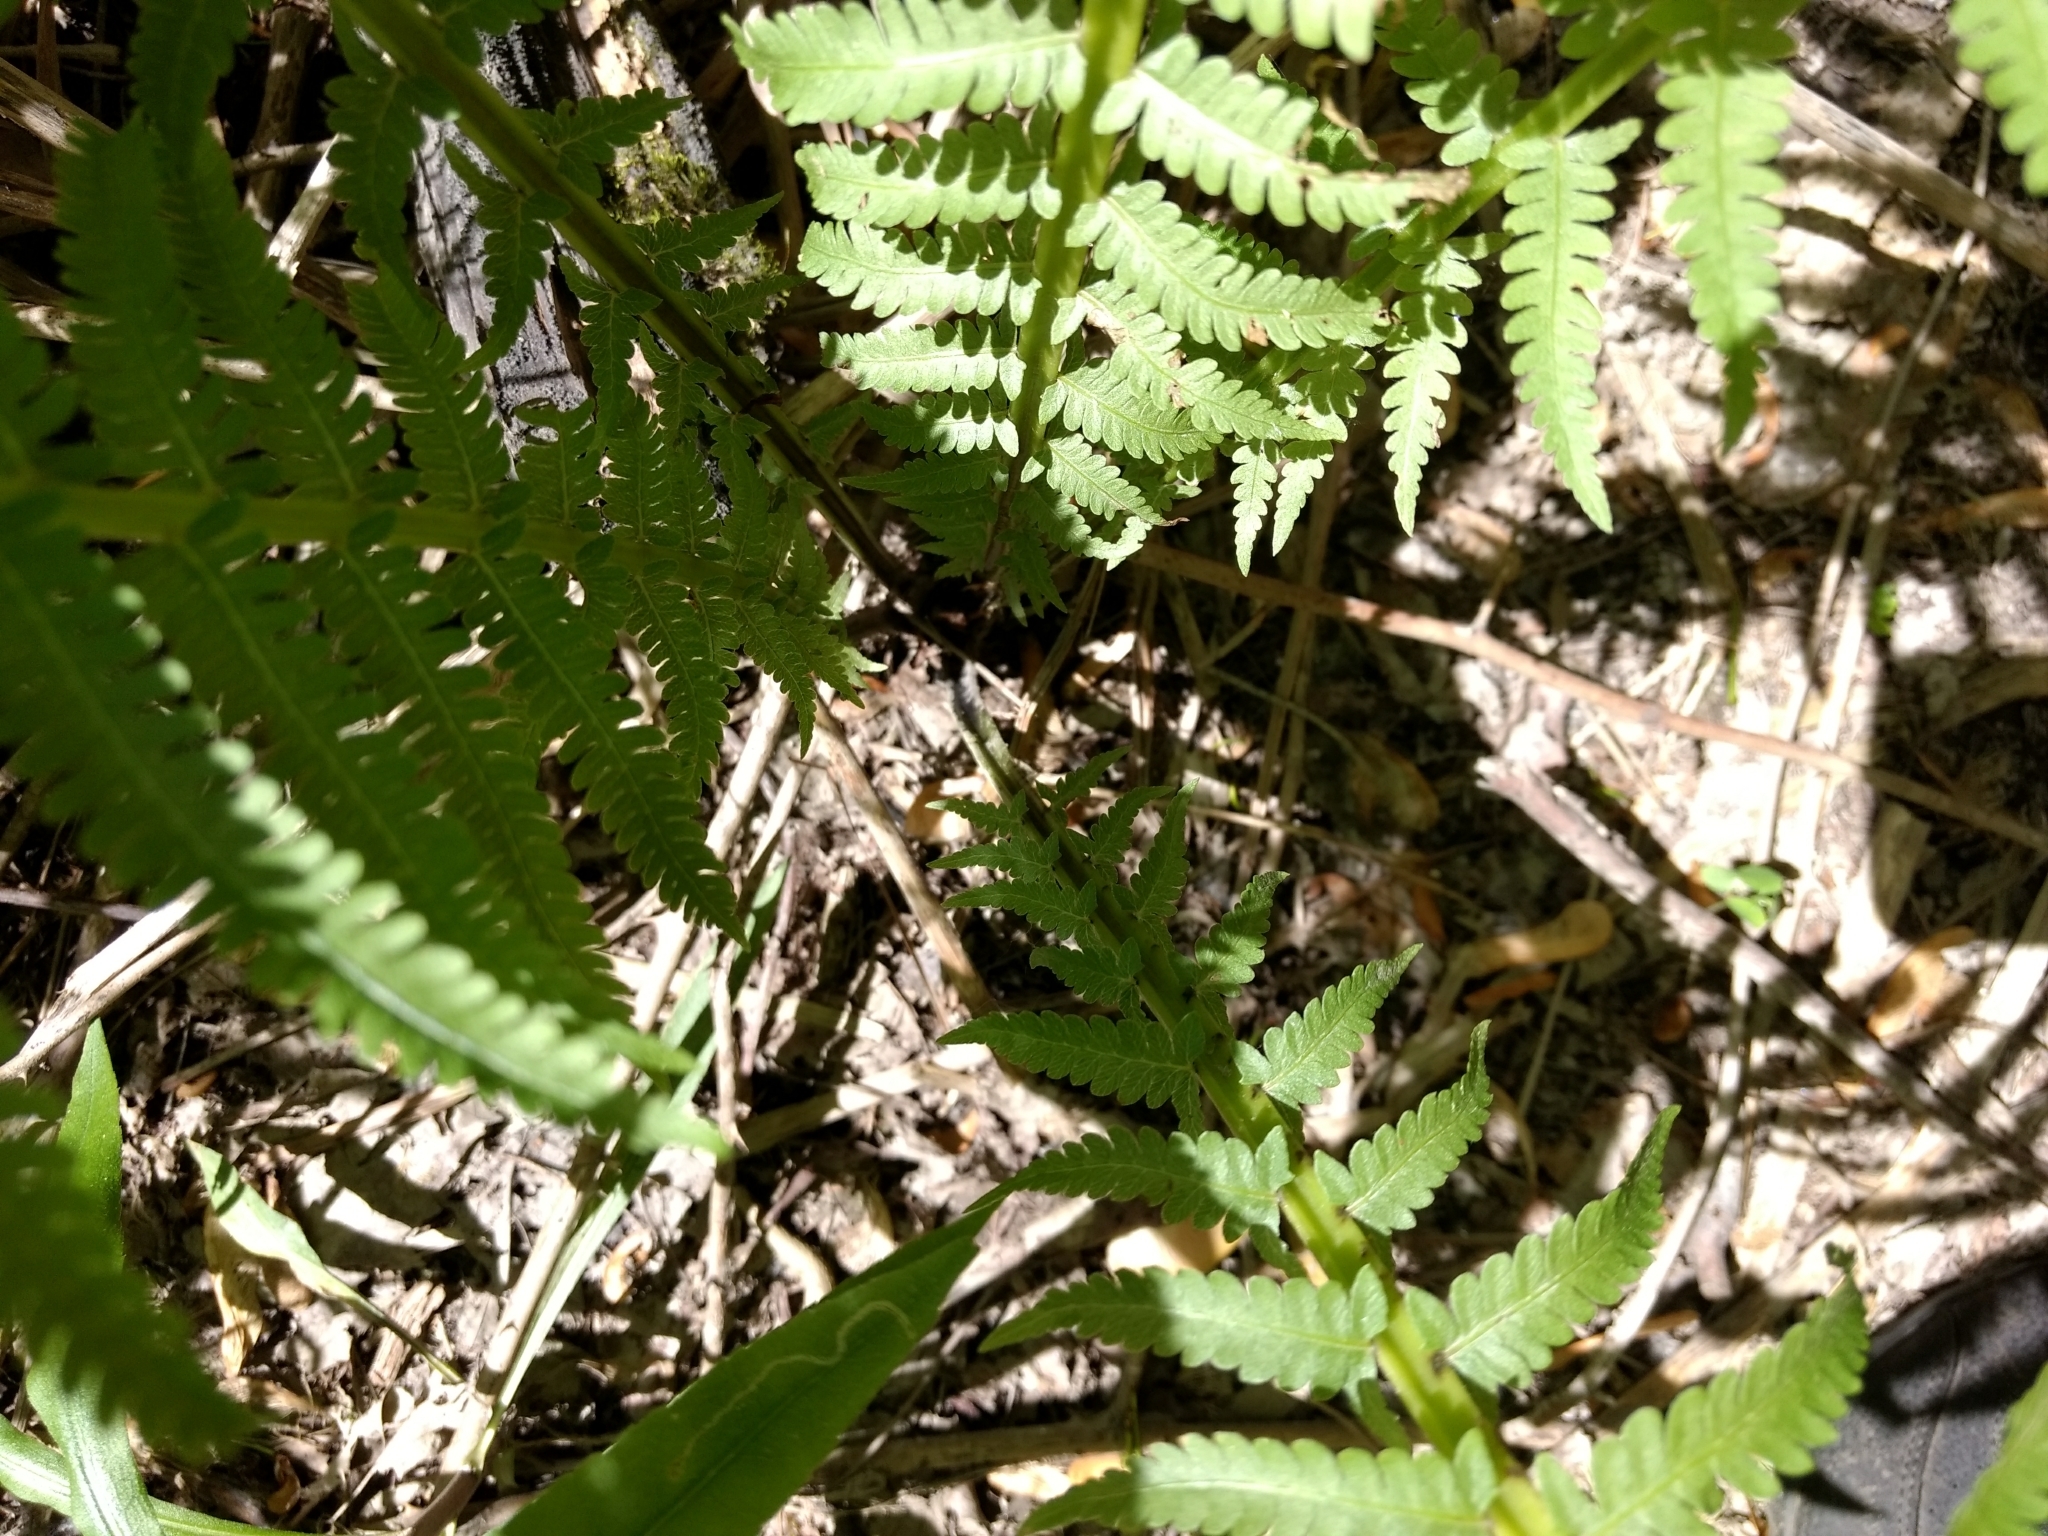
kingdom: Plantae
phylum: Tracheophyta
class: Polypodiopsida
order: Polypodiales
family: Onocleaceae
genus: Matteuccia
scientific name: Matteuccia struthiopteris
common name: Ostrich fern
